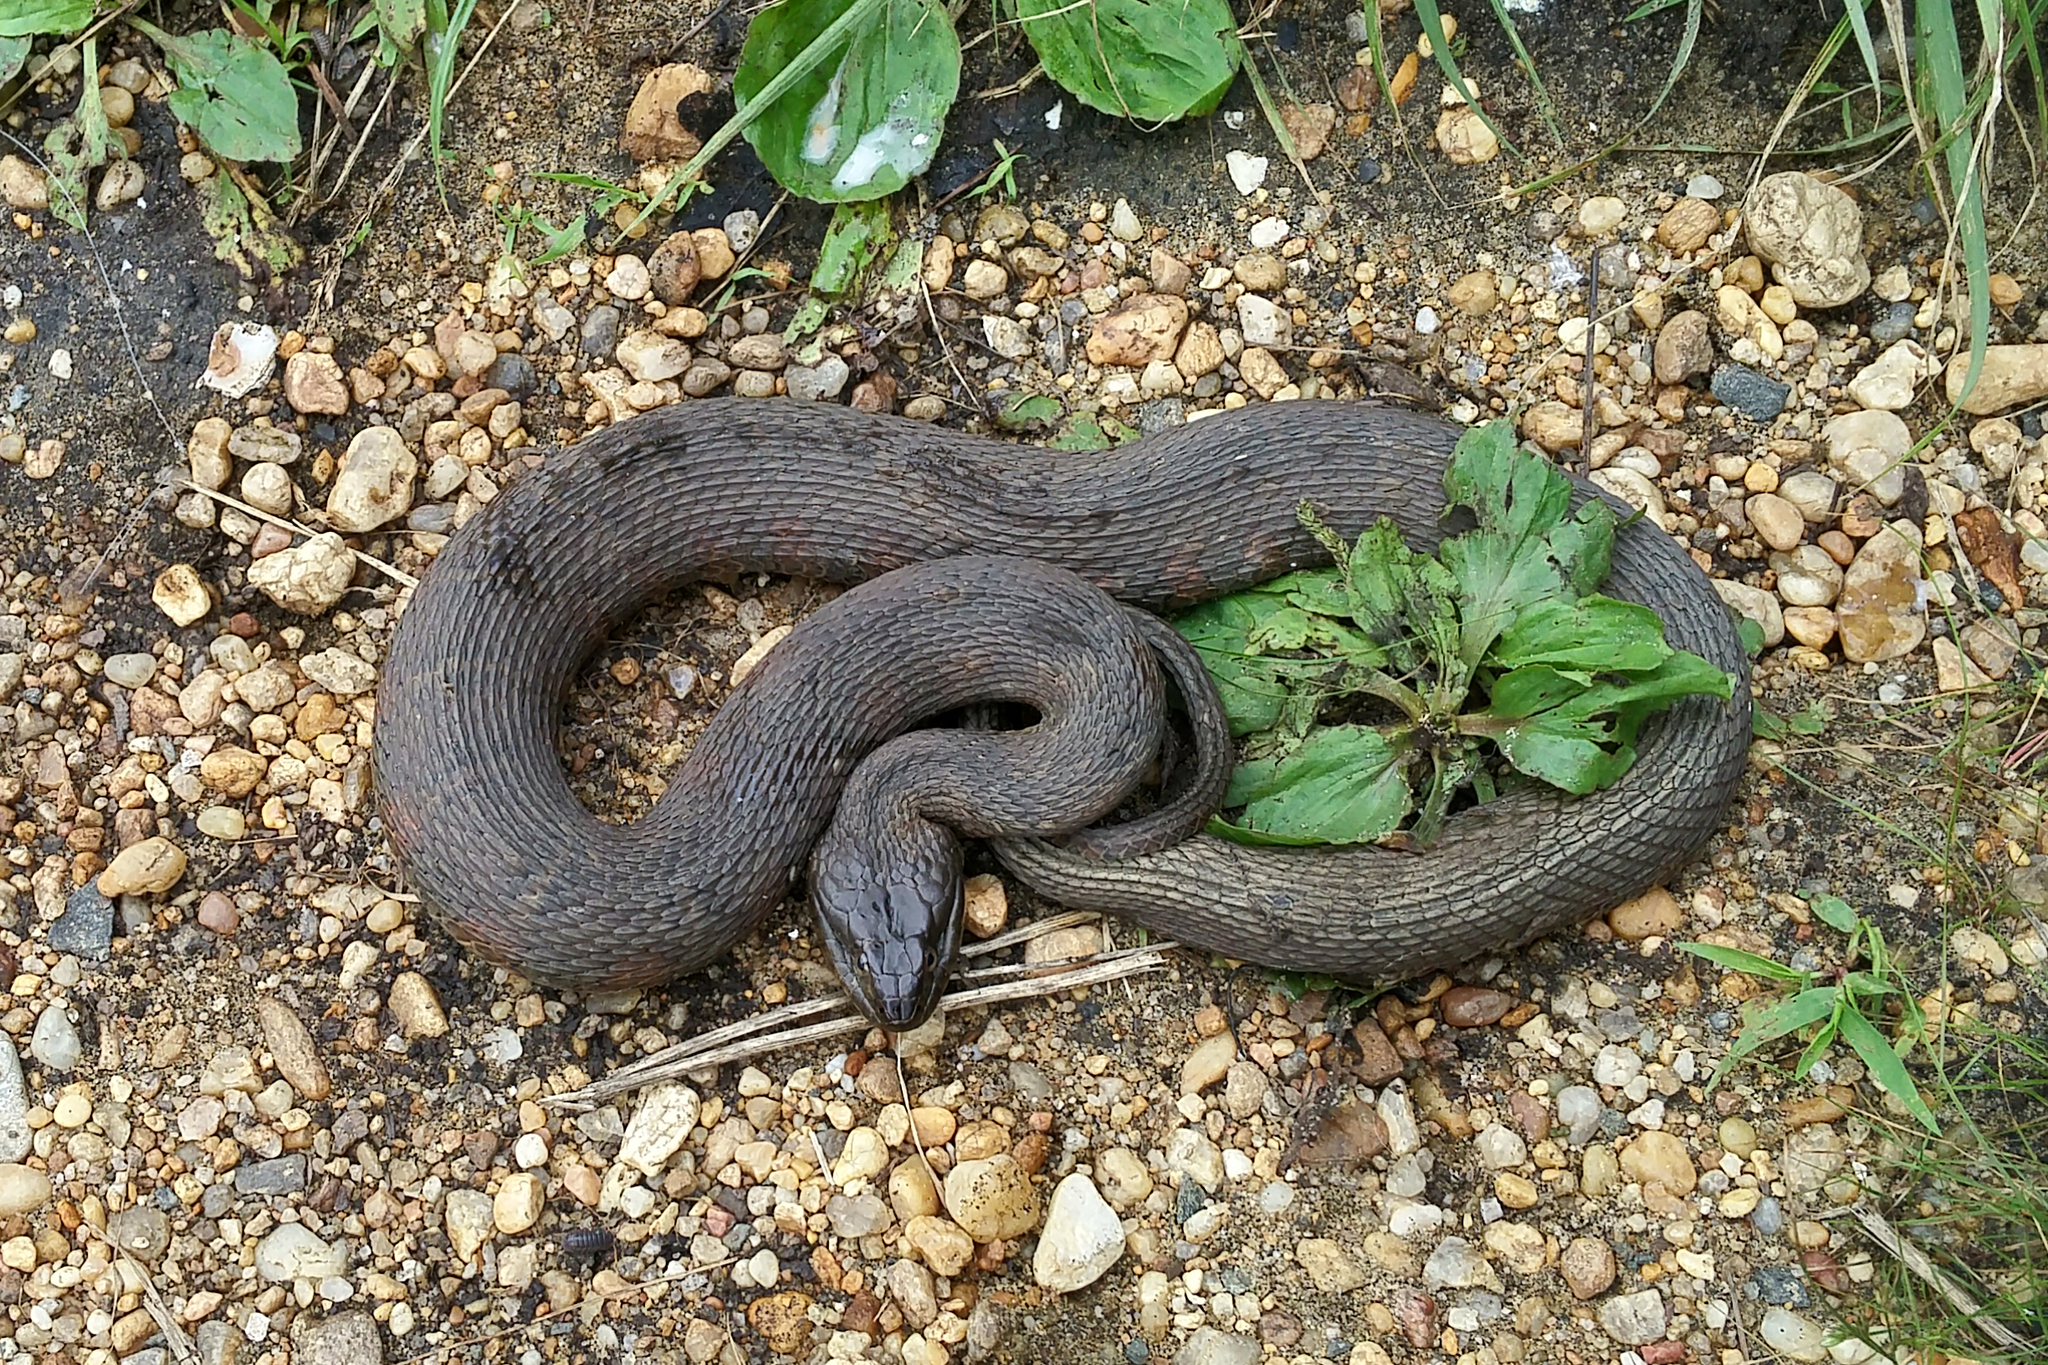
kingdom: Animalia
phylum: Chordata
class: Squamata
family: Colubridae
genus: Nerodia
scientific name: Nerodia sipedon
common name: Northern water snake
